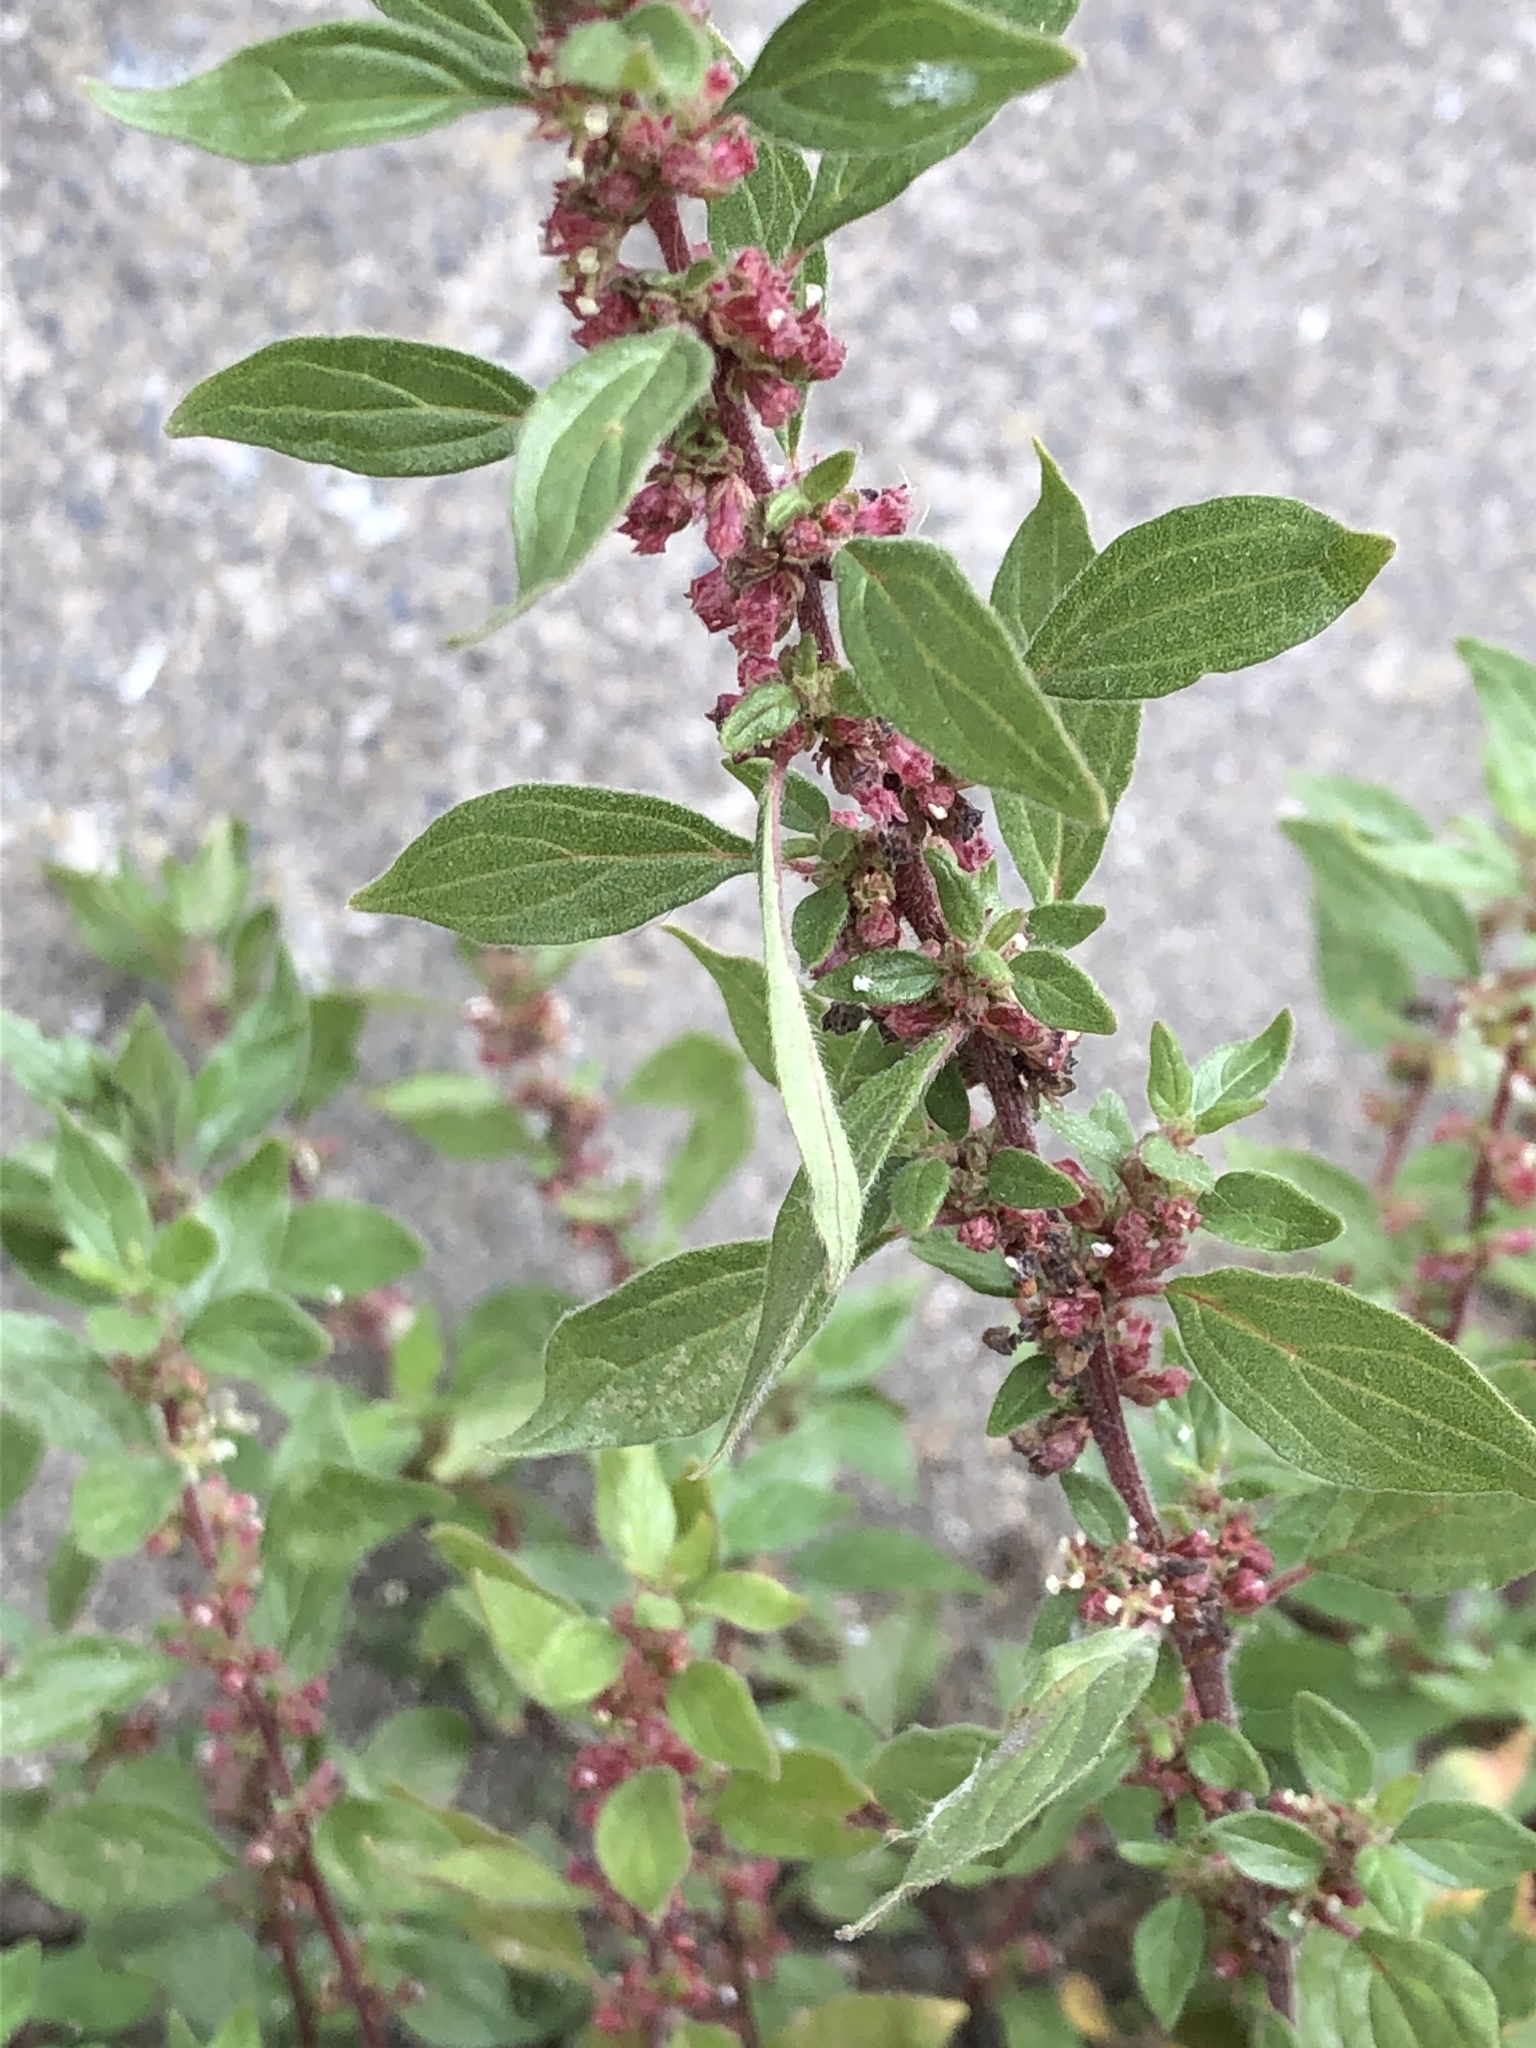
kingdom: Plantae
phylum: Tracheophyta
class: Magnoliopsida
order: Rosales
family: Urticaceae
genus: Parietaria
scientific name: Parietaria judaica
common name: Pellitory-of-the-wall
